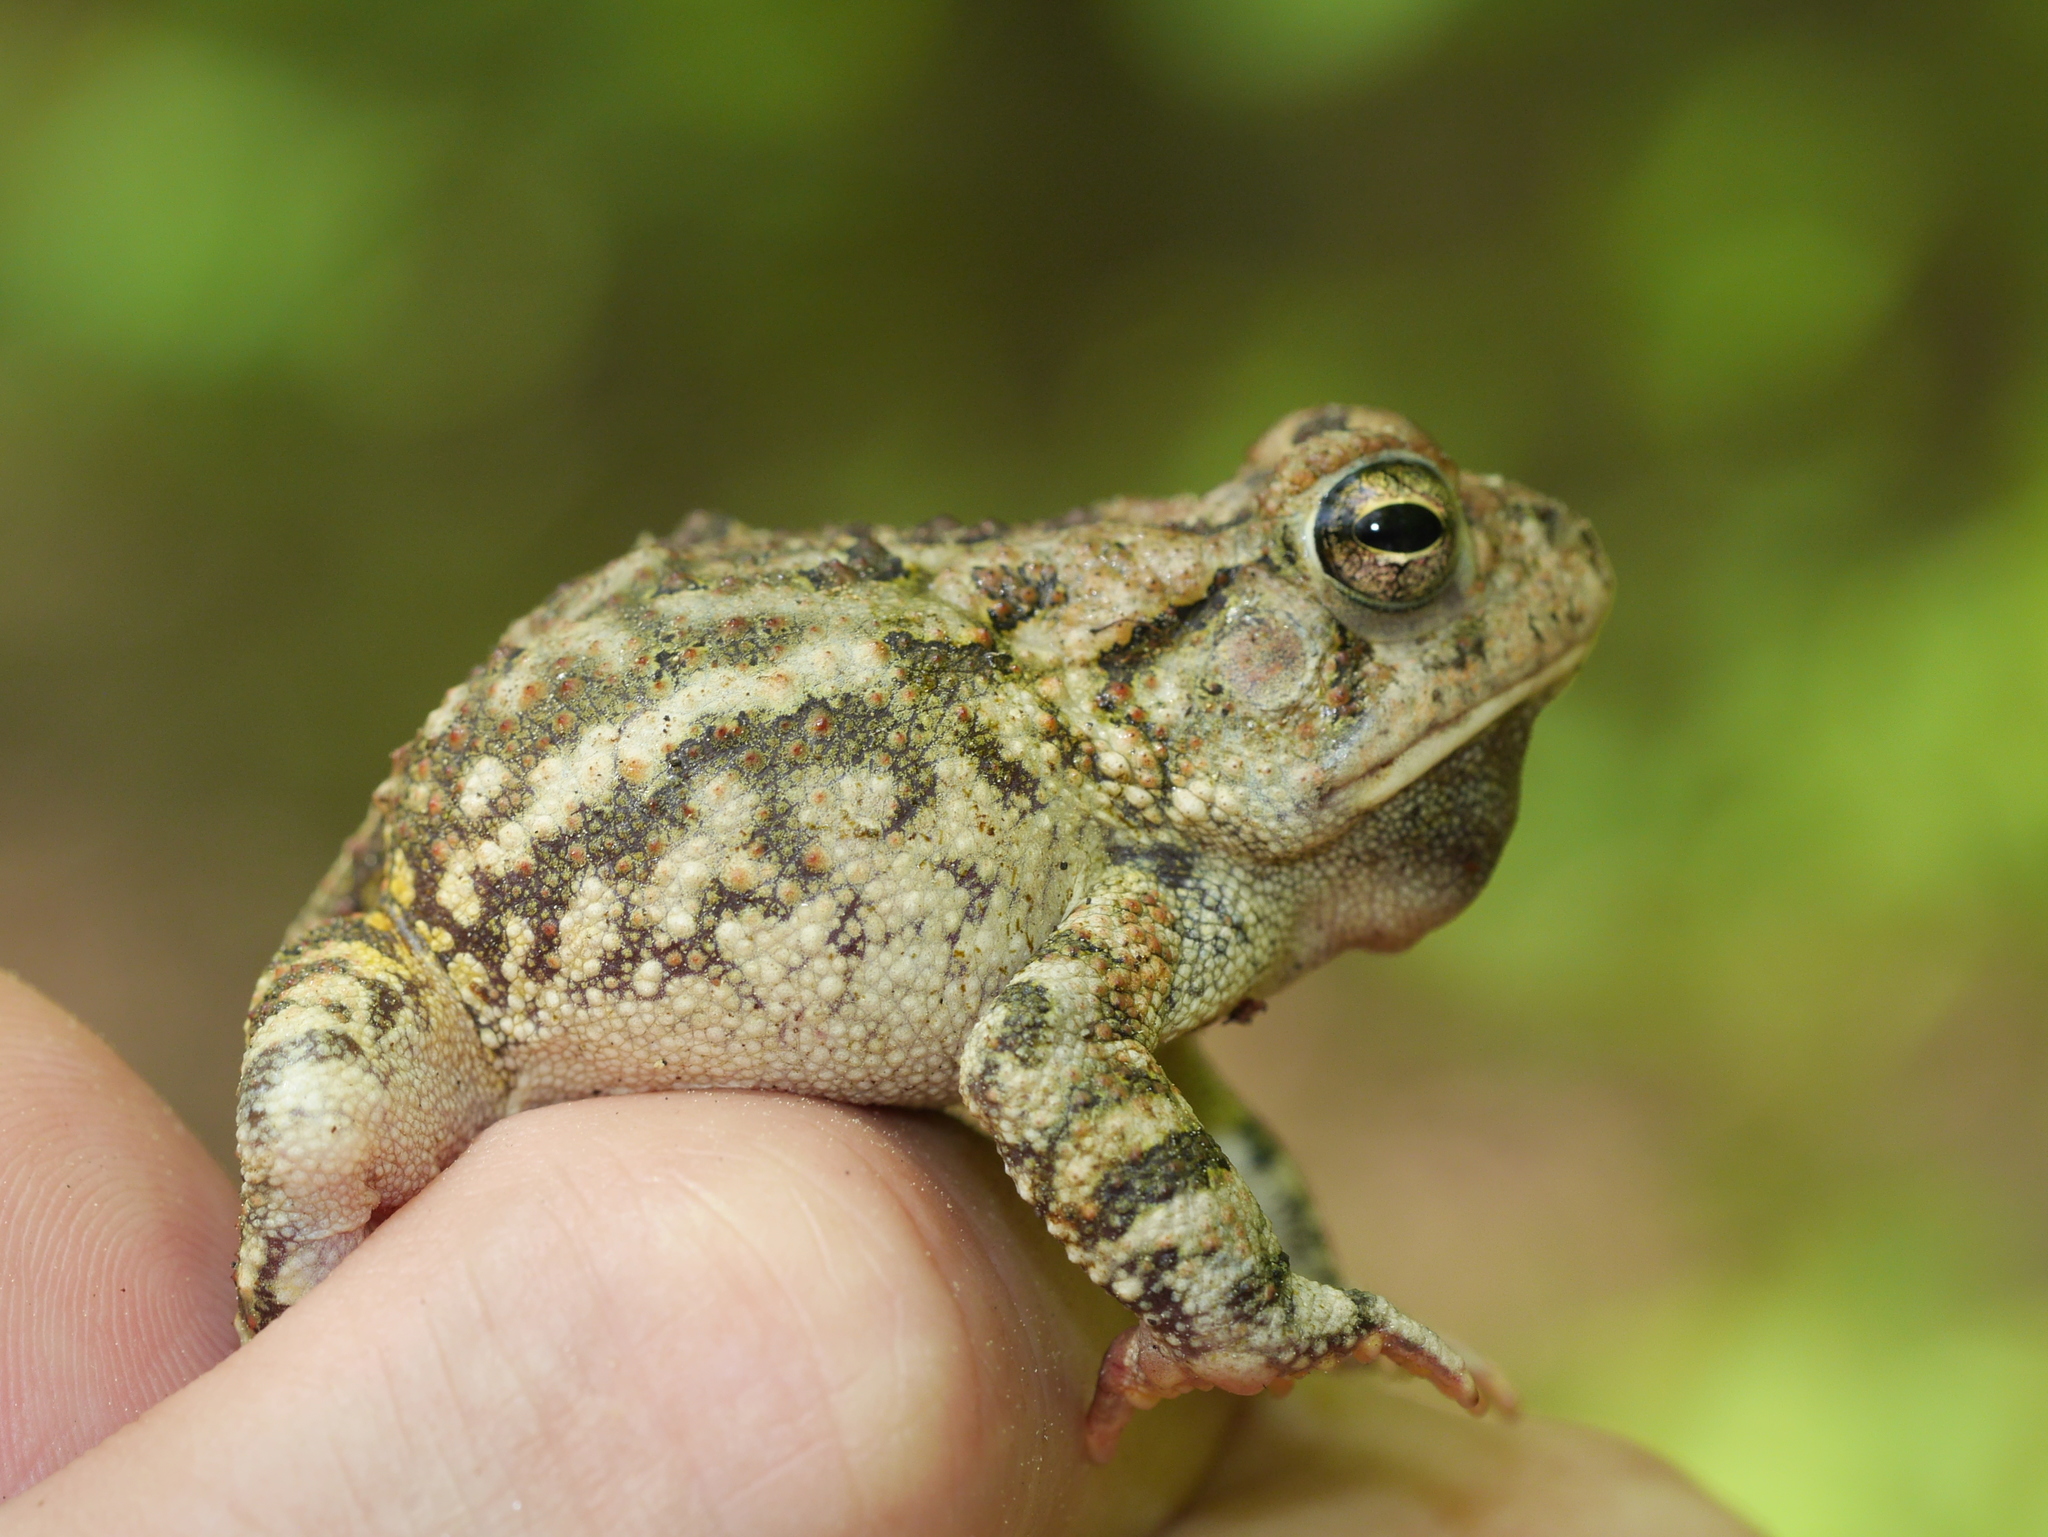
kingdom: Animalia
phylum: Chordata
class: Amphibia
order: Anura
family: Bufonidae
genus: Anaxyrus
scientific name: Anaxyrus fowleri
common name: Fowler's toad
